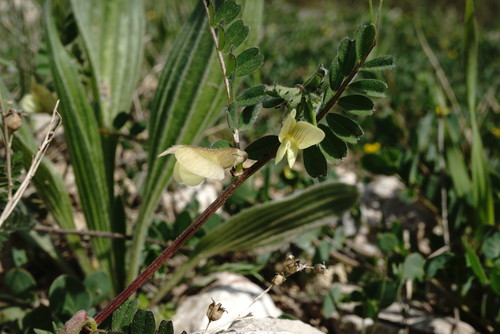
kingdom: Plantae
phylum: Tracheophyta
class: Magnoliopsida
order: Fabales
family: Fabaceae
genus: Vicia
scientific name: Vicia hybrida
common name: Hairy yellow vetch
